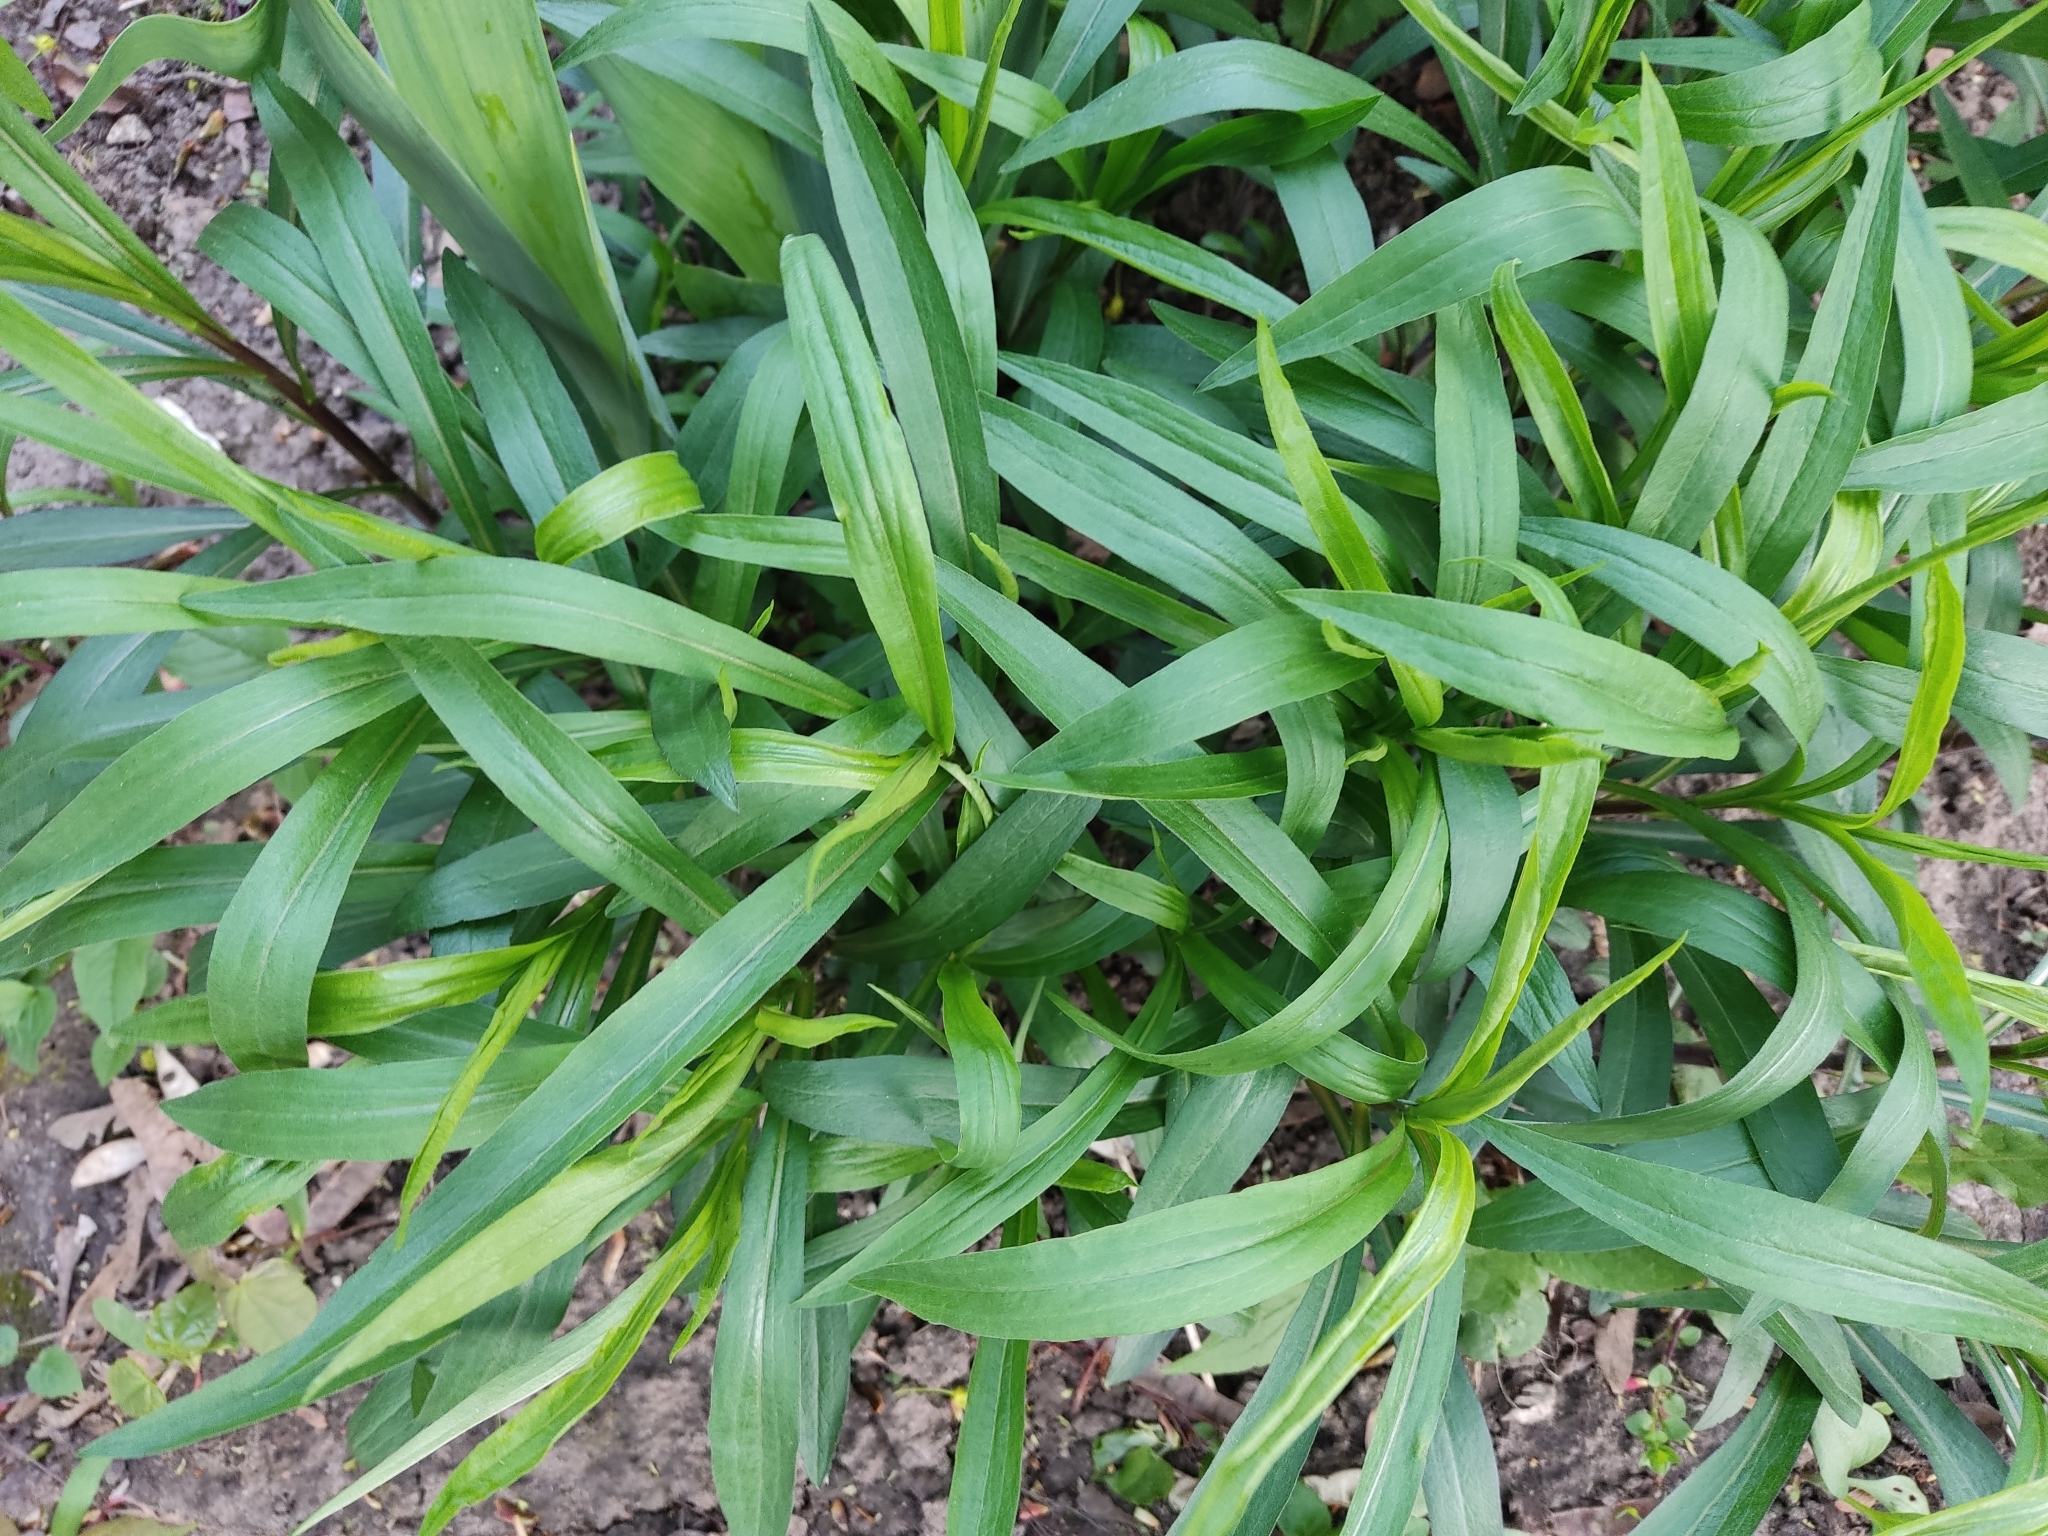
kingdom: Plantae
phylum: Tracheophyta
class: Magnoliopsida
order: Asterales
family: Asteraceae
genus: Solidago
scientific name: Solidago gigantea
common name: Giant goldenrod
